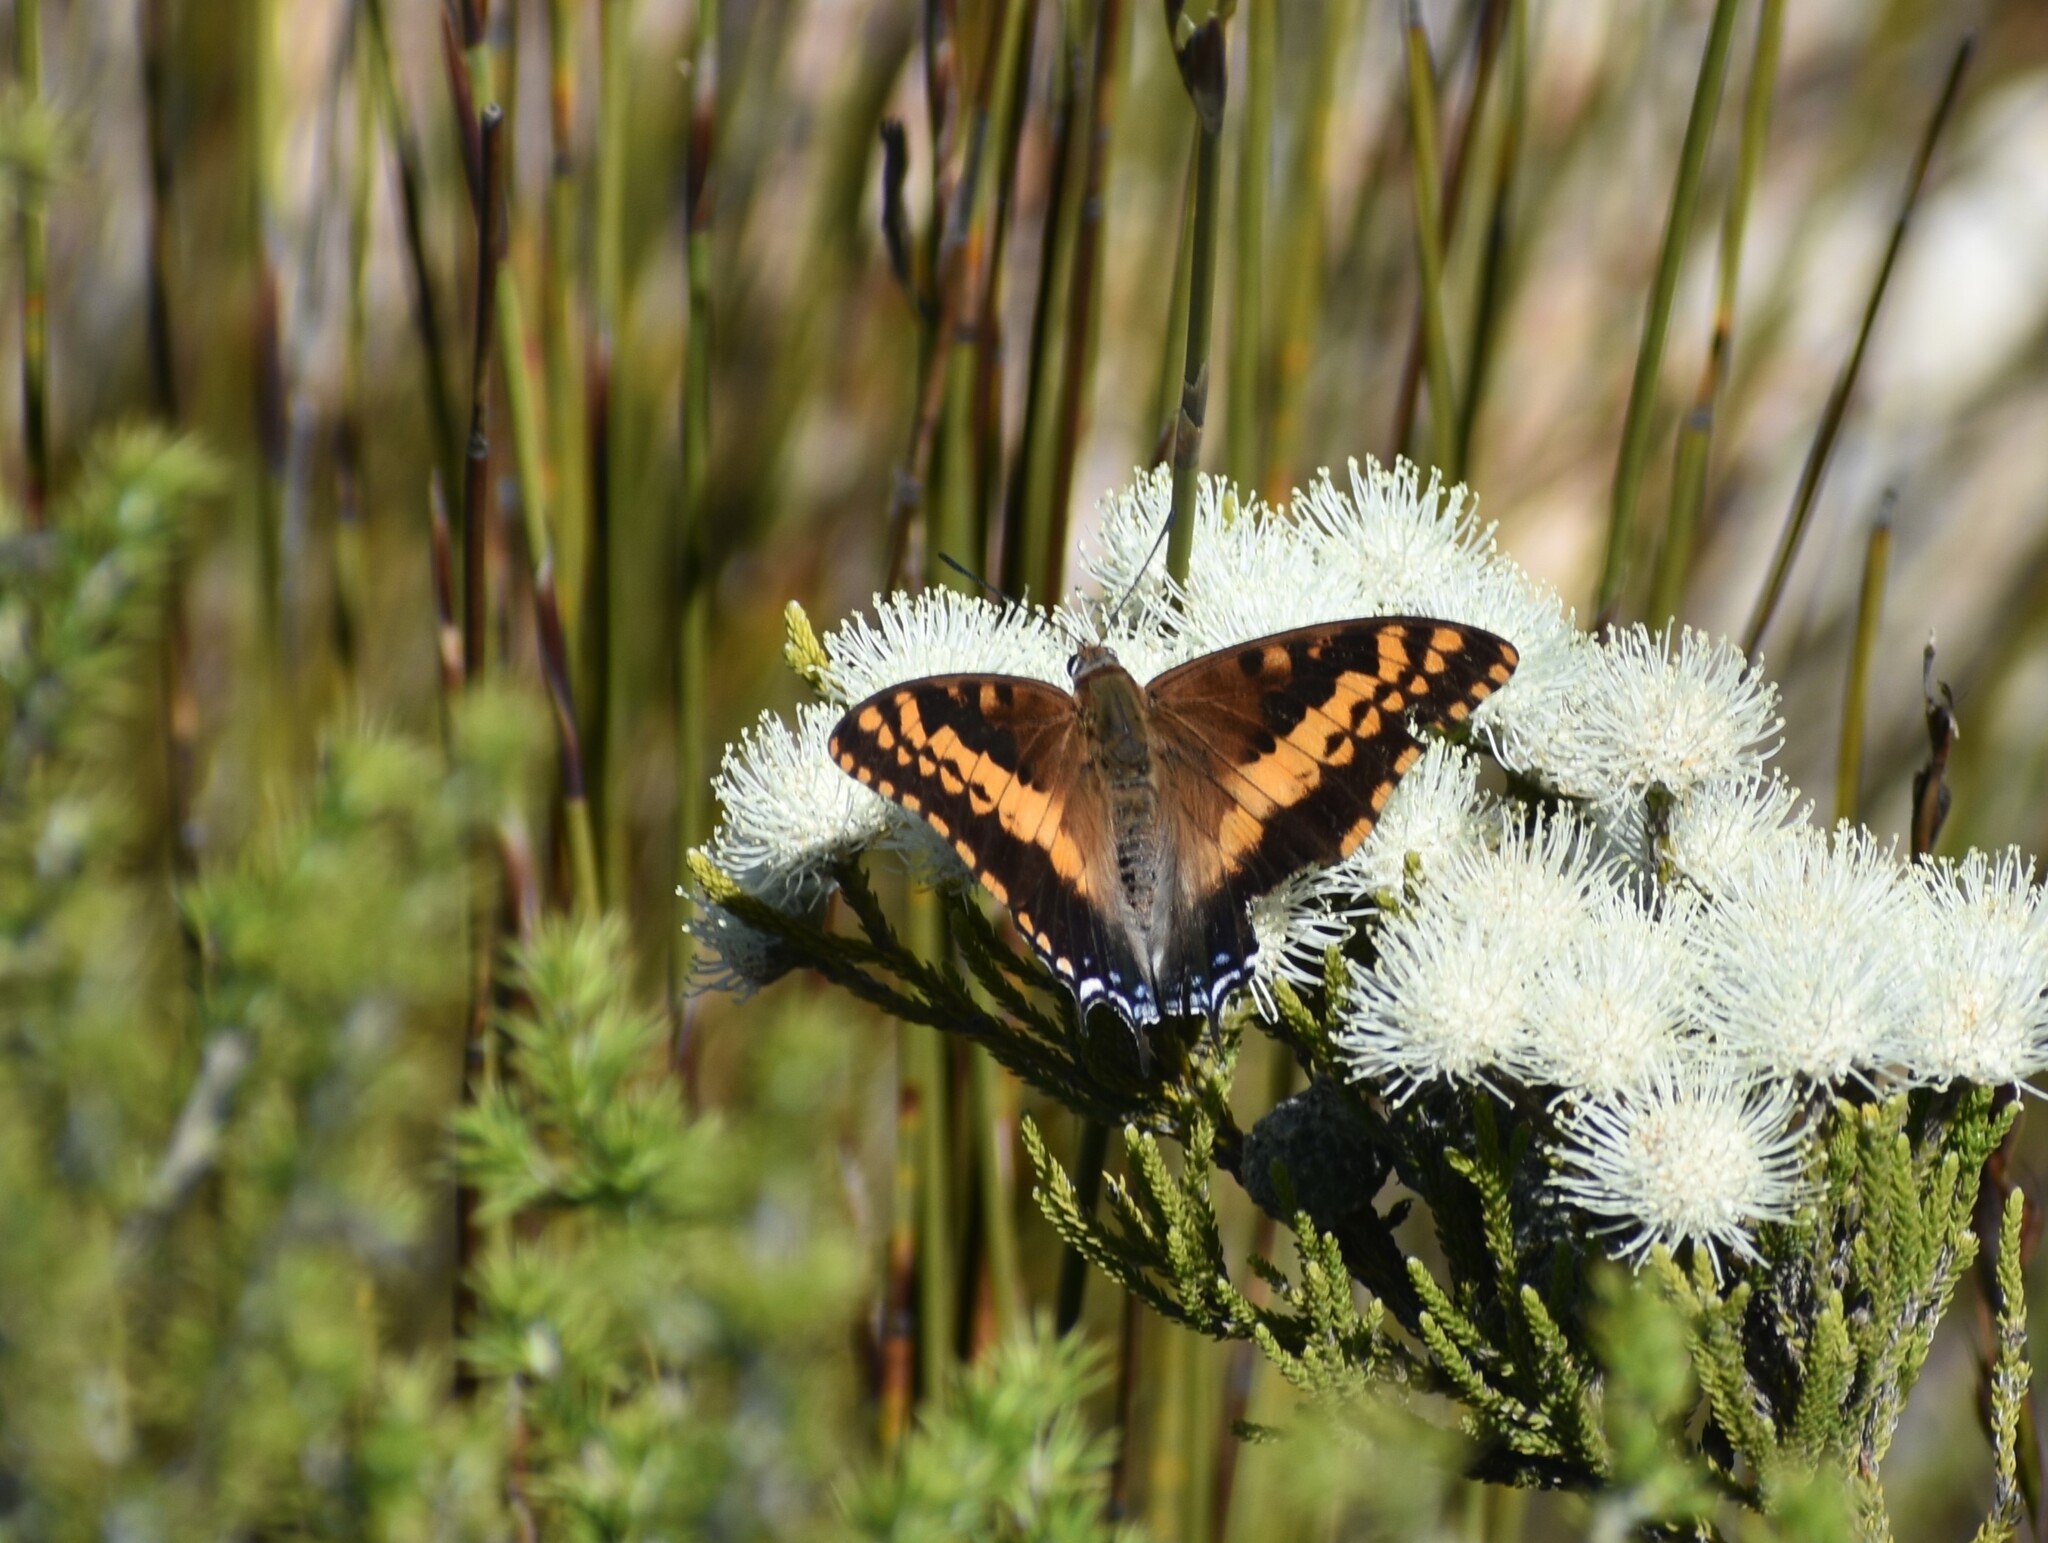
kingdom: Animalia
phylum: Arthropoda
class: Insecta
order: Lepidoptera
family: Nymphalidae
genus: Charaxes
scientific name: Charaxes pelias
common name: Protea charaxes
